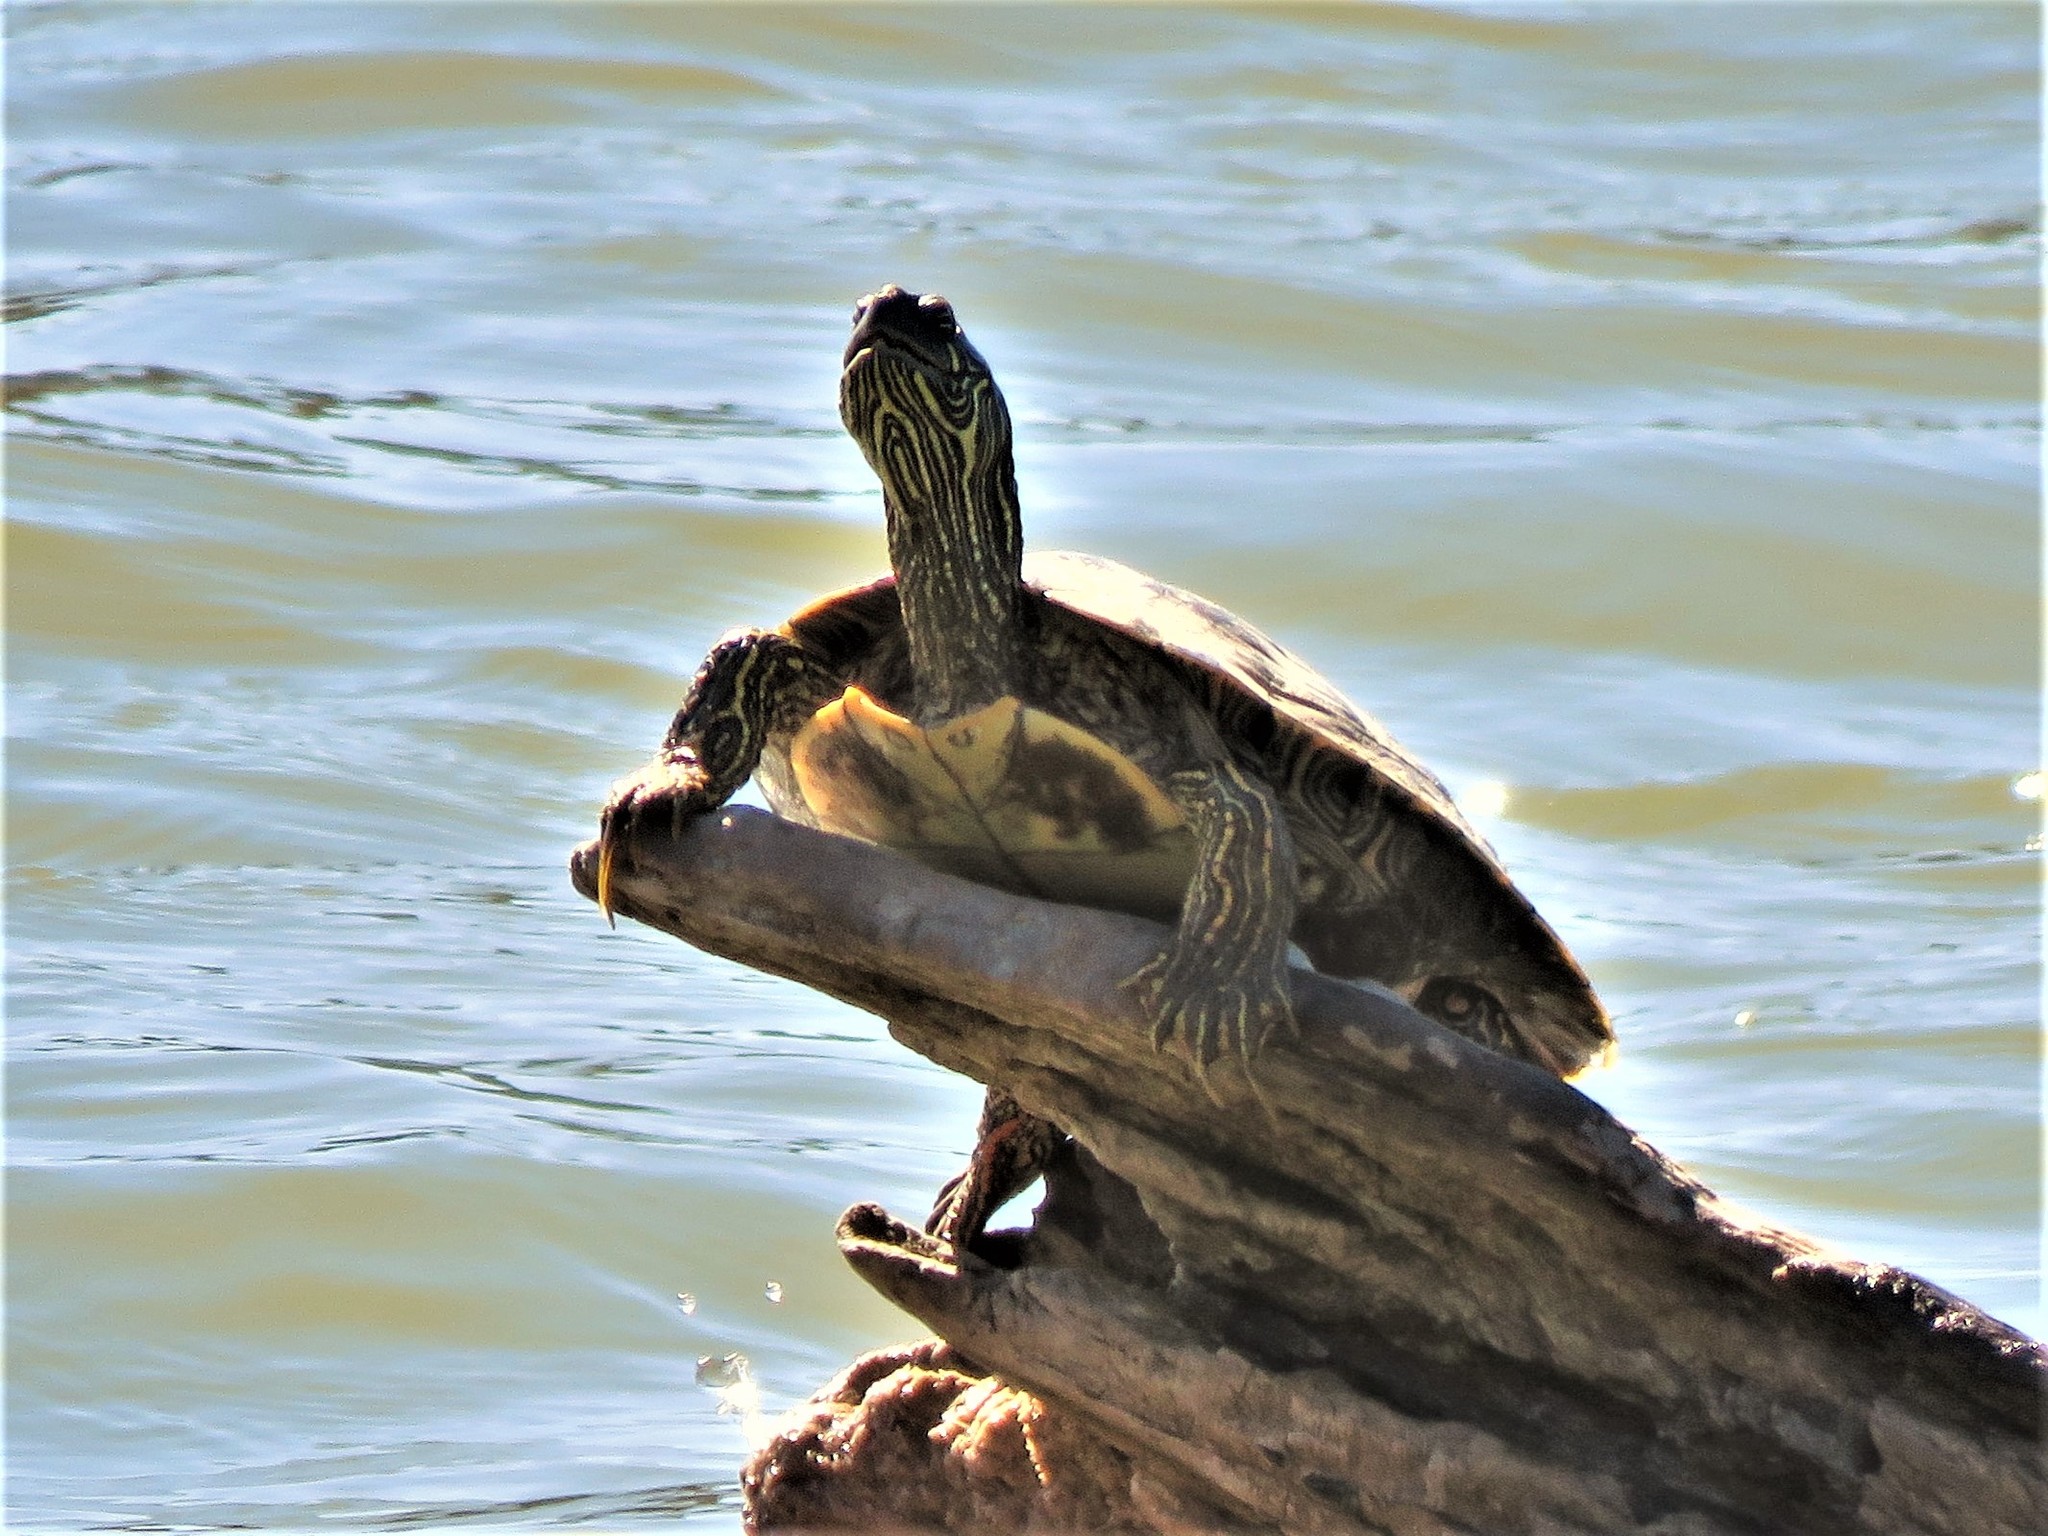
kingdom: Animalia
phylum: Chordata
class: Testudines
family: Emydidae
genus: Pseudemys
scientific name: Pseudemys texana
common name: Texas river cooter
